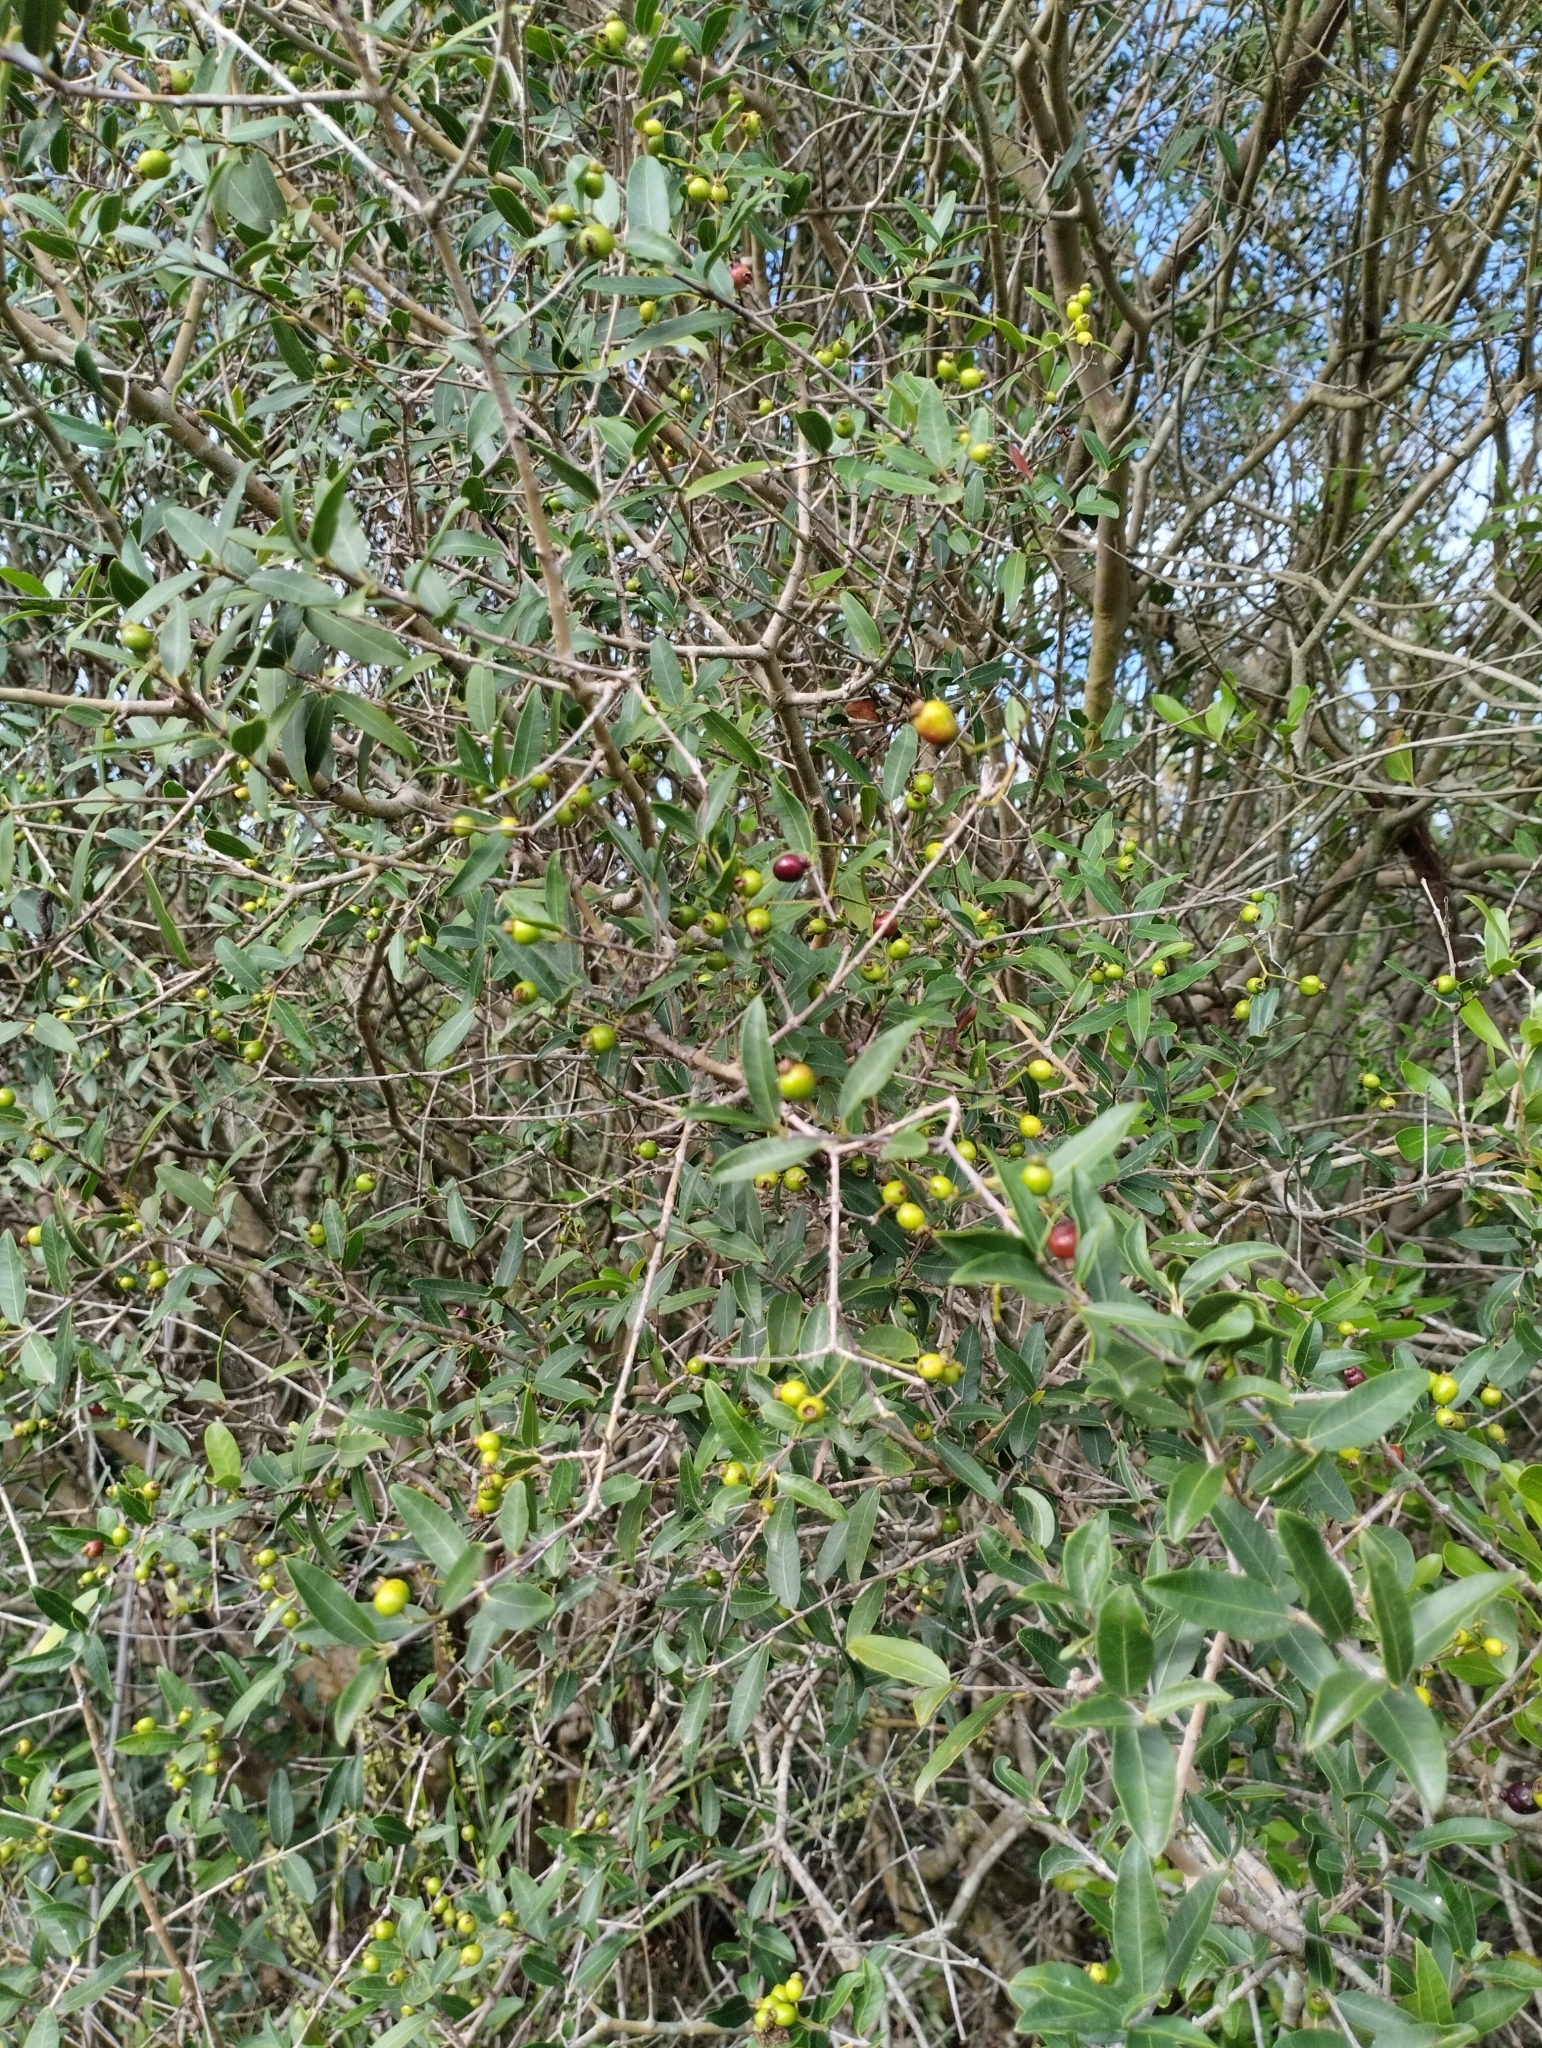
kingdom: Plantae
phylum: Tracheophyta
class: Magnoliopsida
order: Myrtales
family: Myrtaceae
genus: Myrcianthes
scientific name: Myrcianthes cisplatensis
